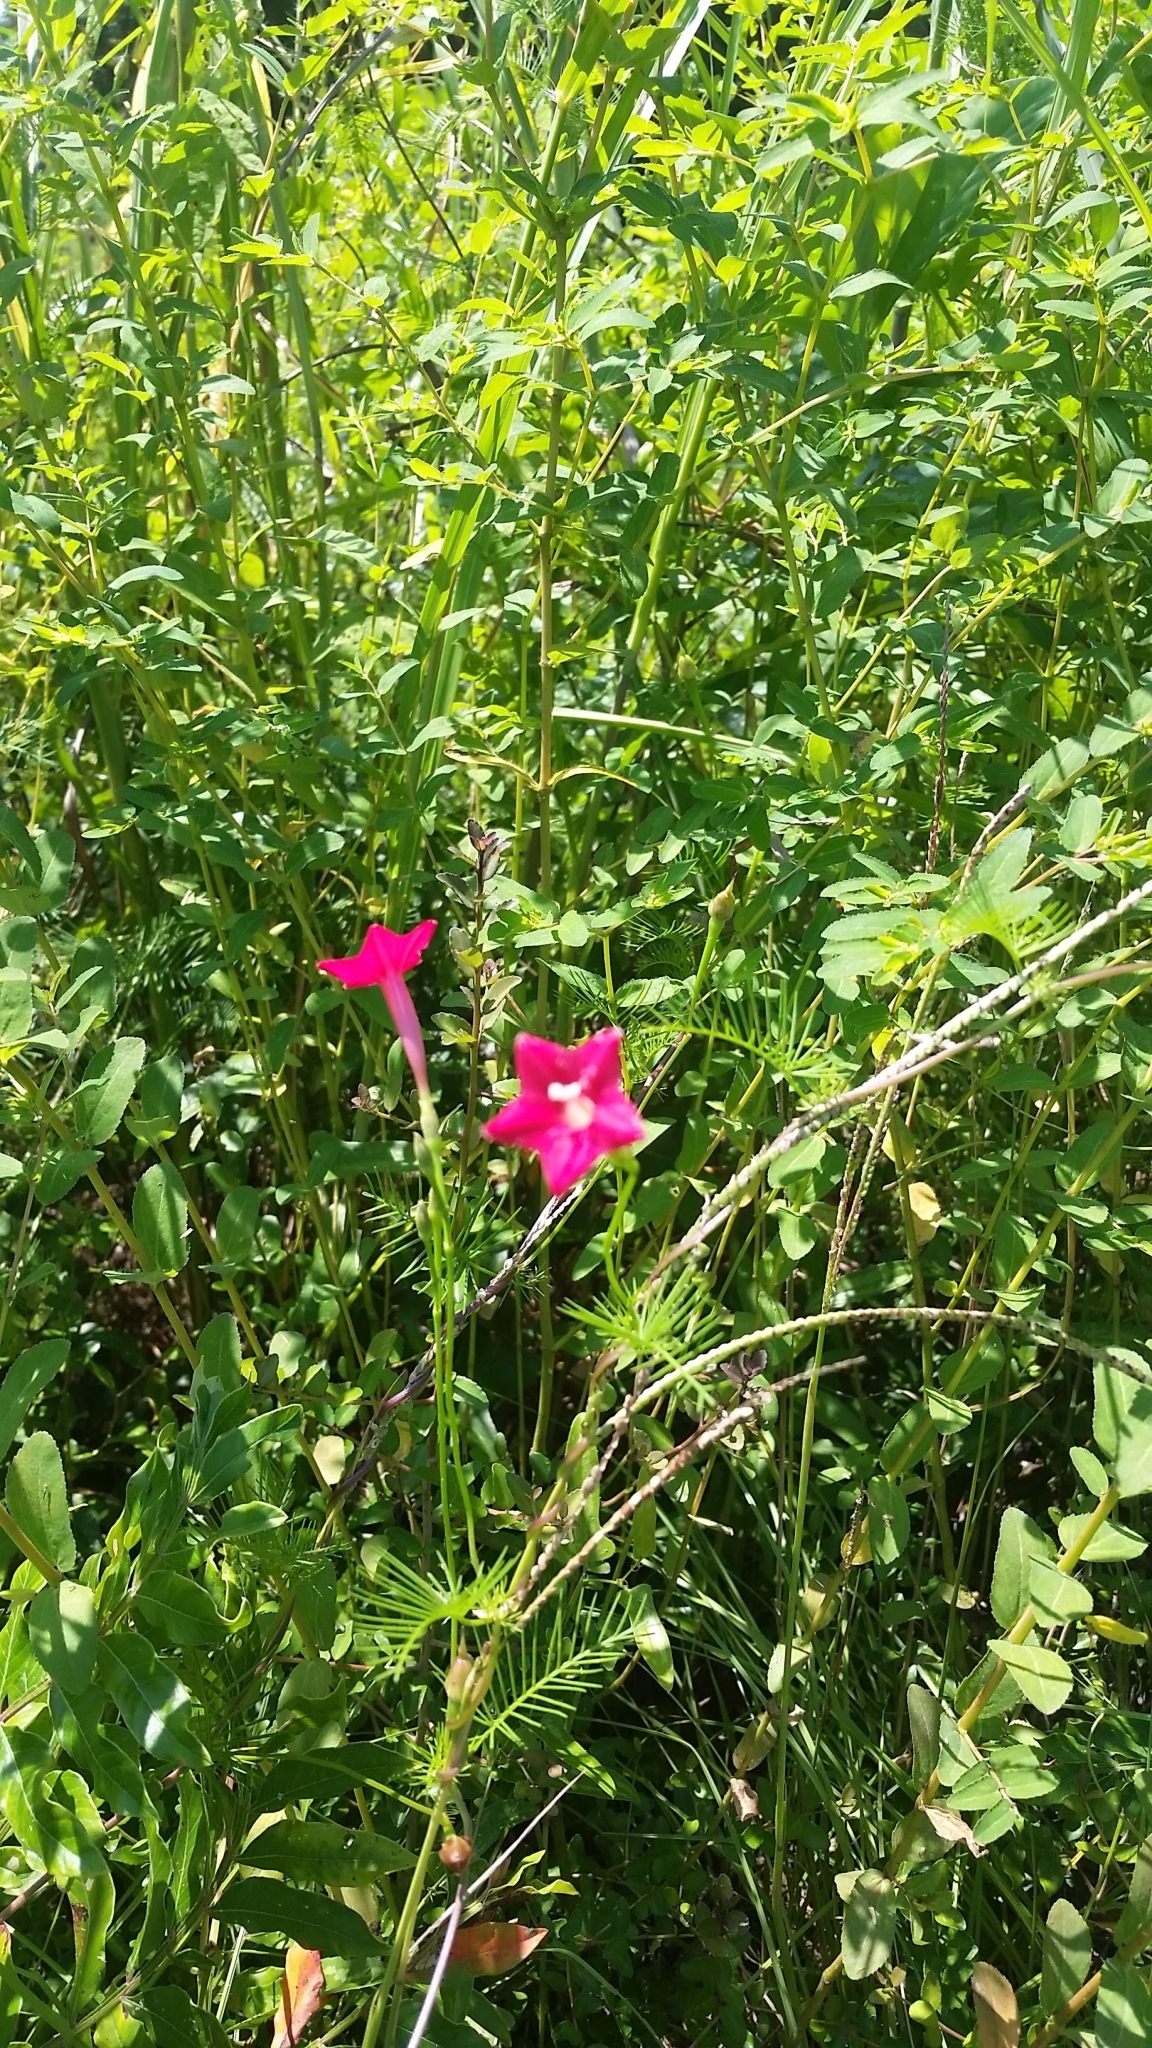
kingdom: Plantae
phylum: Tracheophyta
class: Magnoliopsida
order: Solanales
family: Convolvulaceae
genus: Ipomoea
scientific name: Ipomoea quamoclit
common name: Cypress vine
